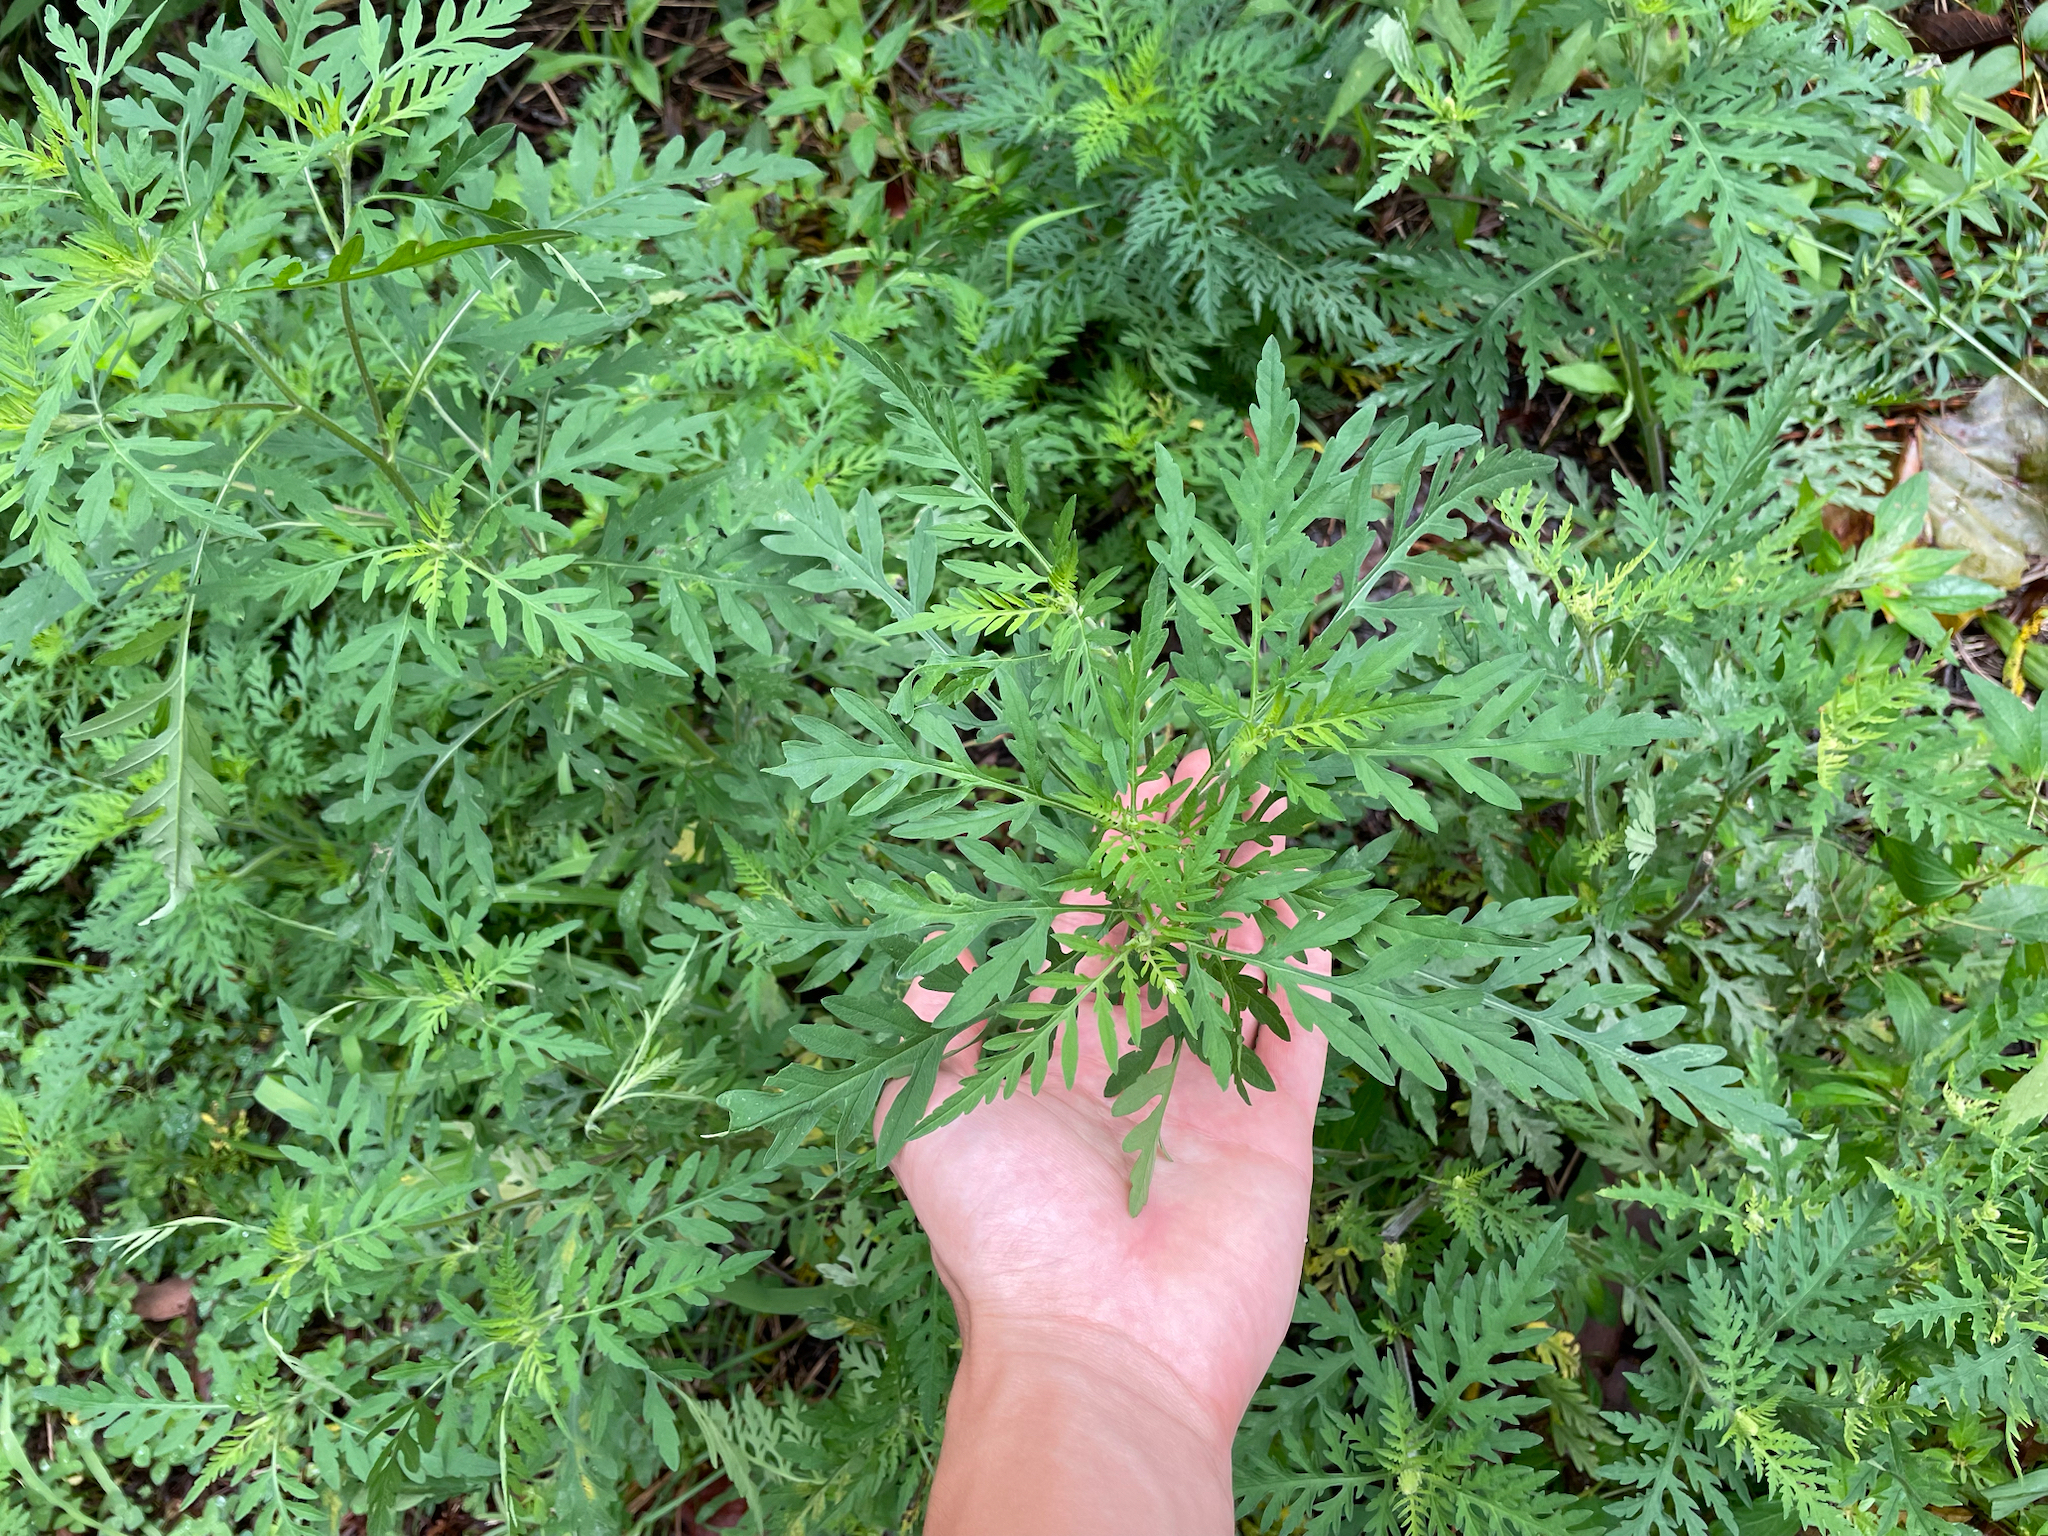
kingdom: Plantae
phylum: Tracheophyta
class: Magnoliopsida
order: Asterales
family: Asteraceae
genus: Ambrosia
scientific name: Ambrosia artemisiifolia
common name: Annual ragweed
